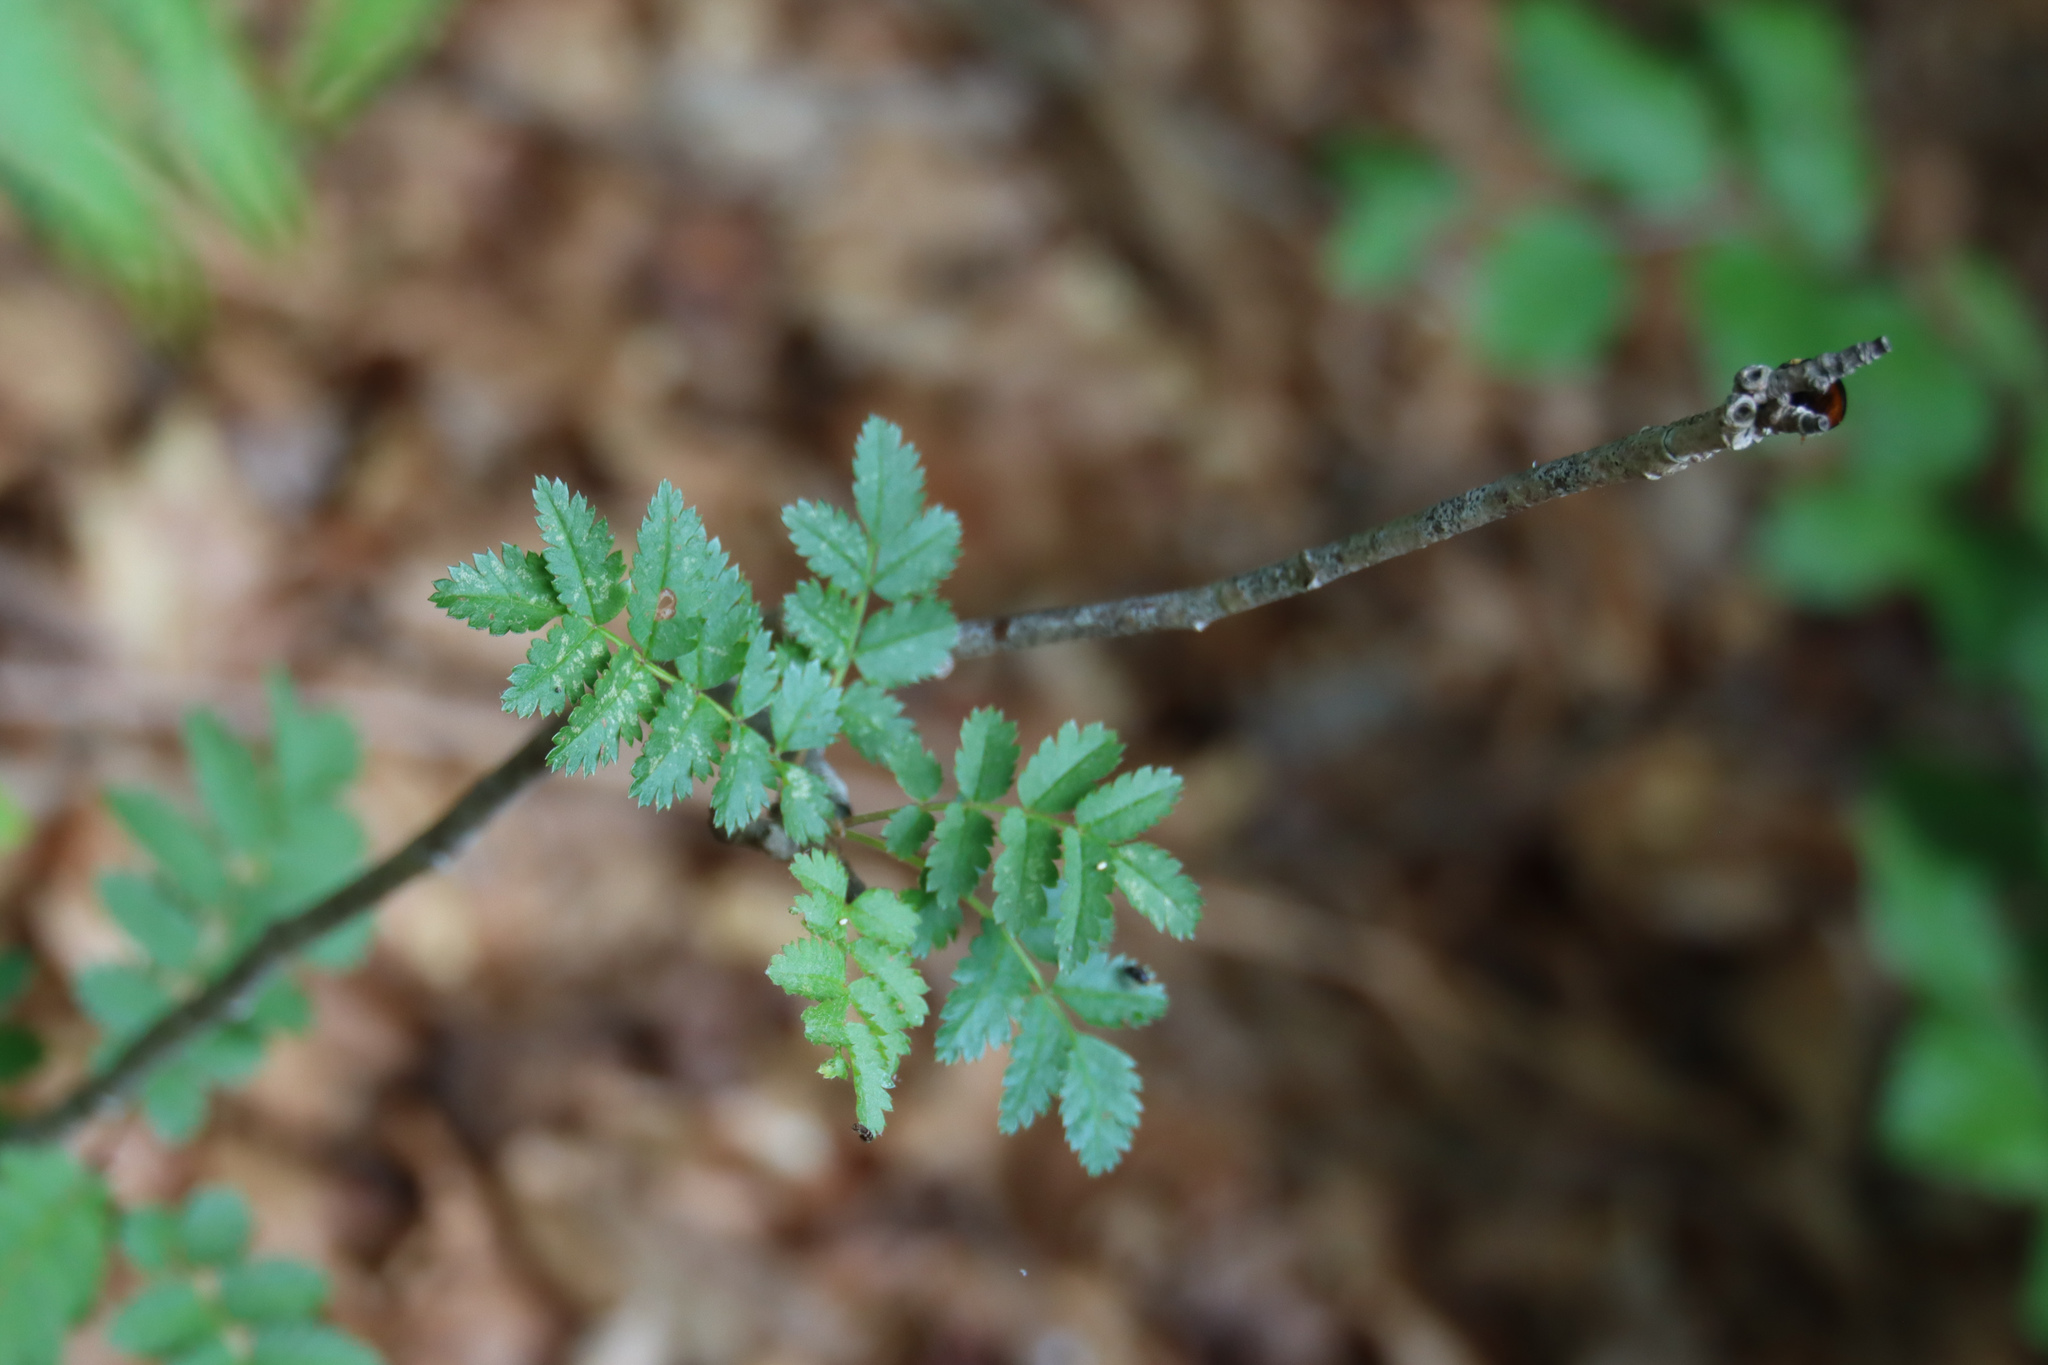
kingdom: Plantae
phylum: Tracheophyta
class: Magnoliopsida
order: Rosales
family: Rosaceae
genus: Sorbus
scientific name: Sorbus aucuparia
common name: Rowan
